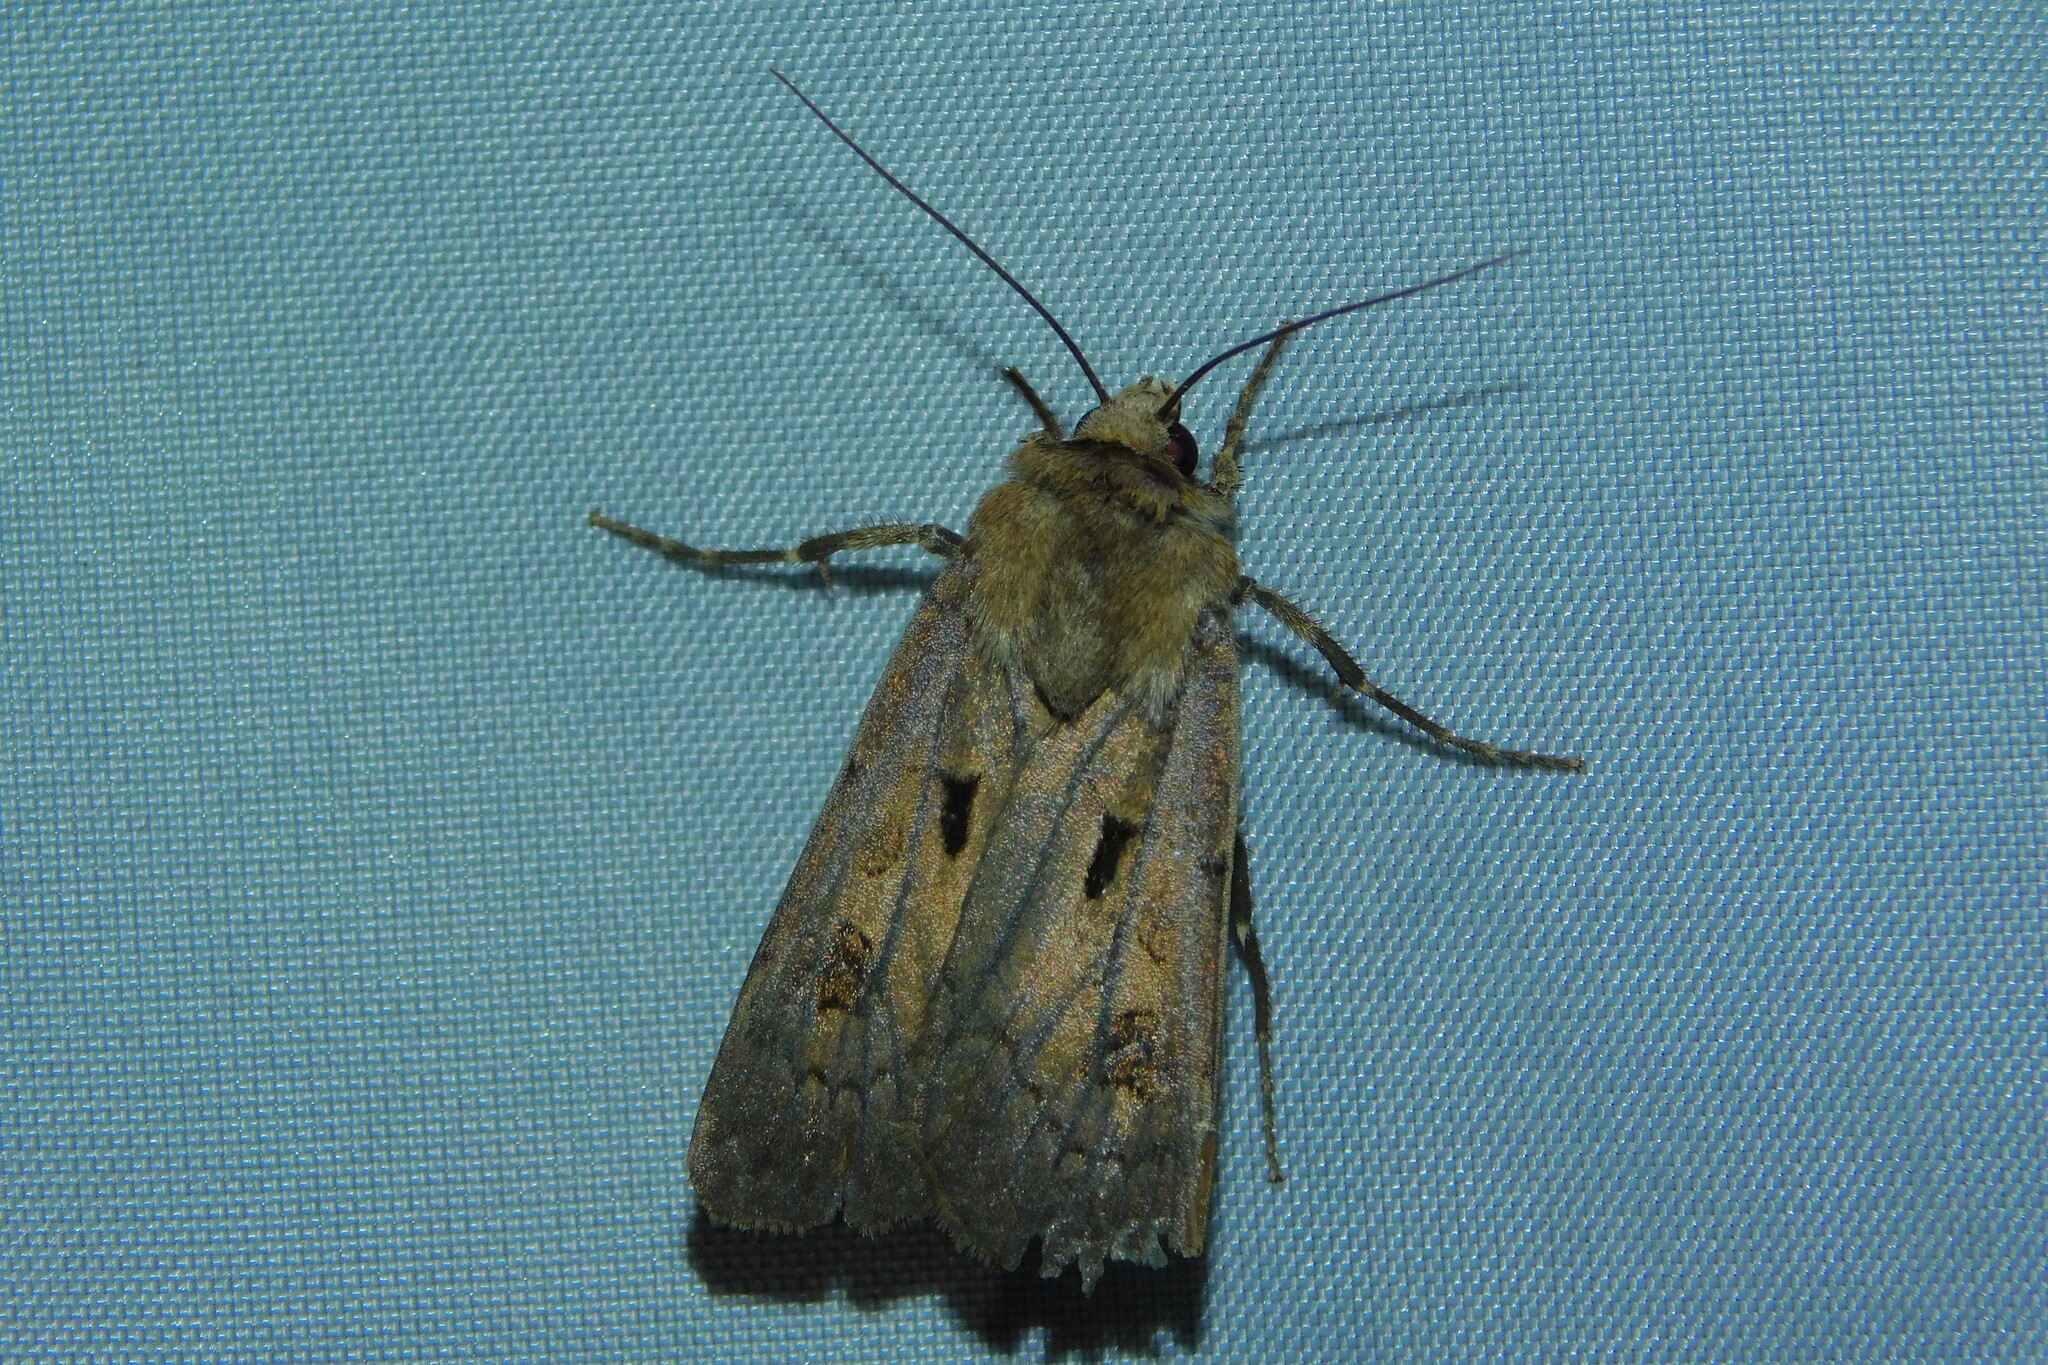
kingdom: Animalia
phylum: Arthropoda
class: Insecta
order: Lepidoptera
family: Noctuidae
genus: Agrotis
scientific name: Agrotis exclamationis
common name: Heart and dart
